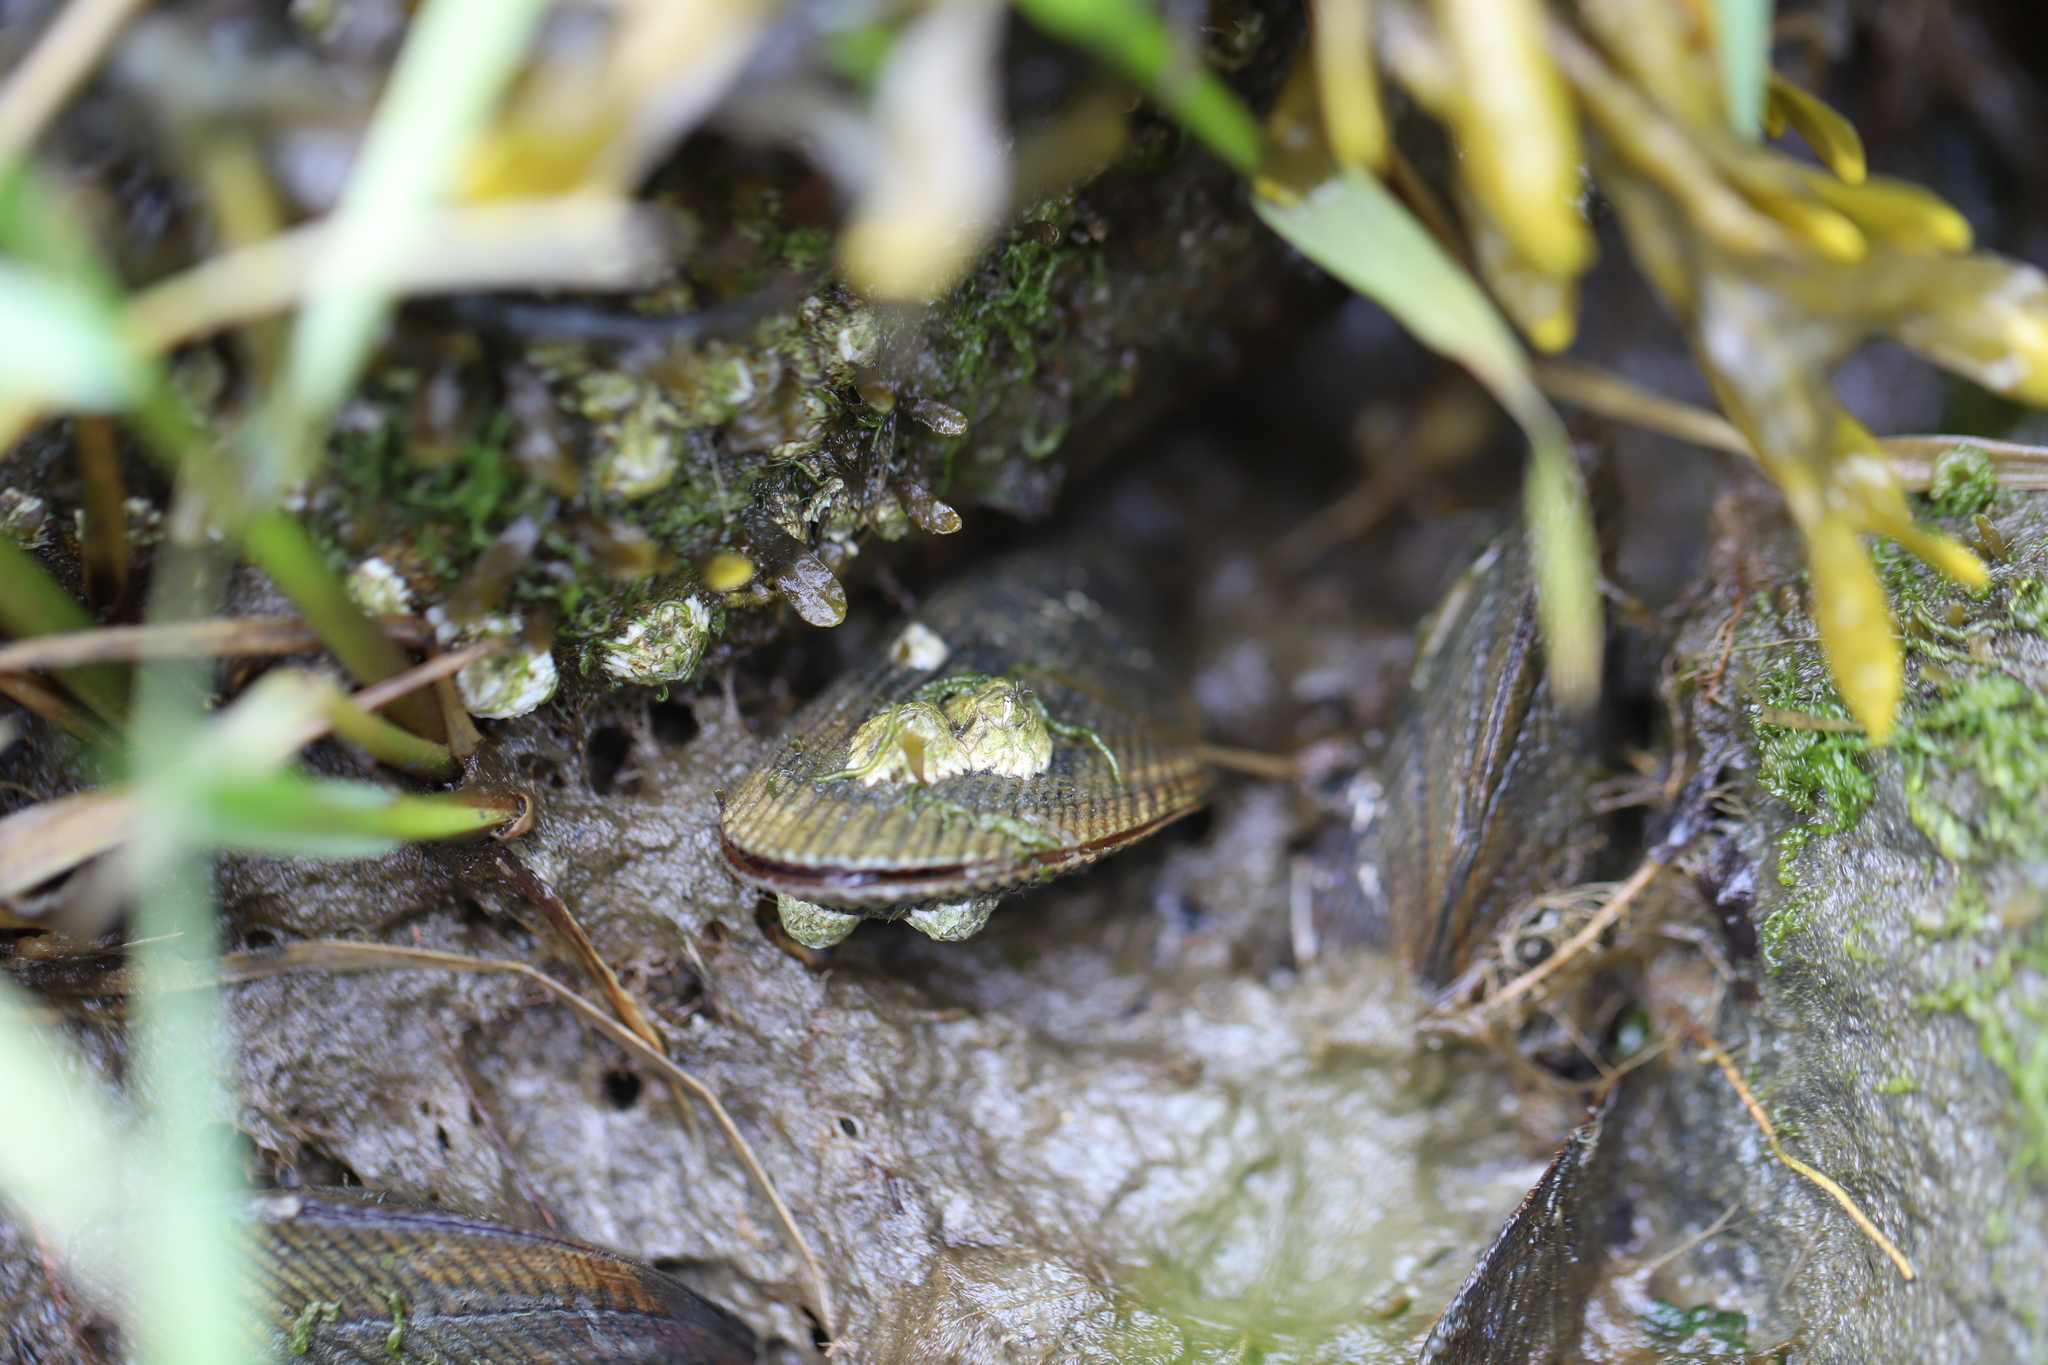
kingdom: Animalia
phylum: Mollusca
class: Bivalvia
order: Mytilida
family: Mytilidae
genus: Geukensia
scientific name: Geukensia demissa
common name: Ribbed mussel
